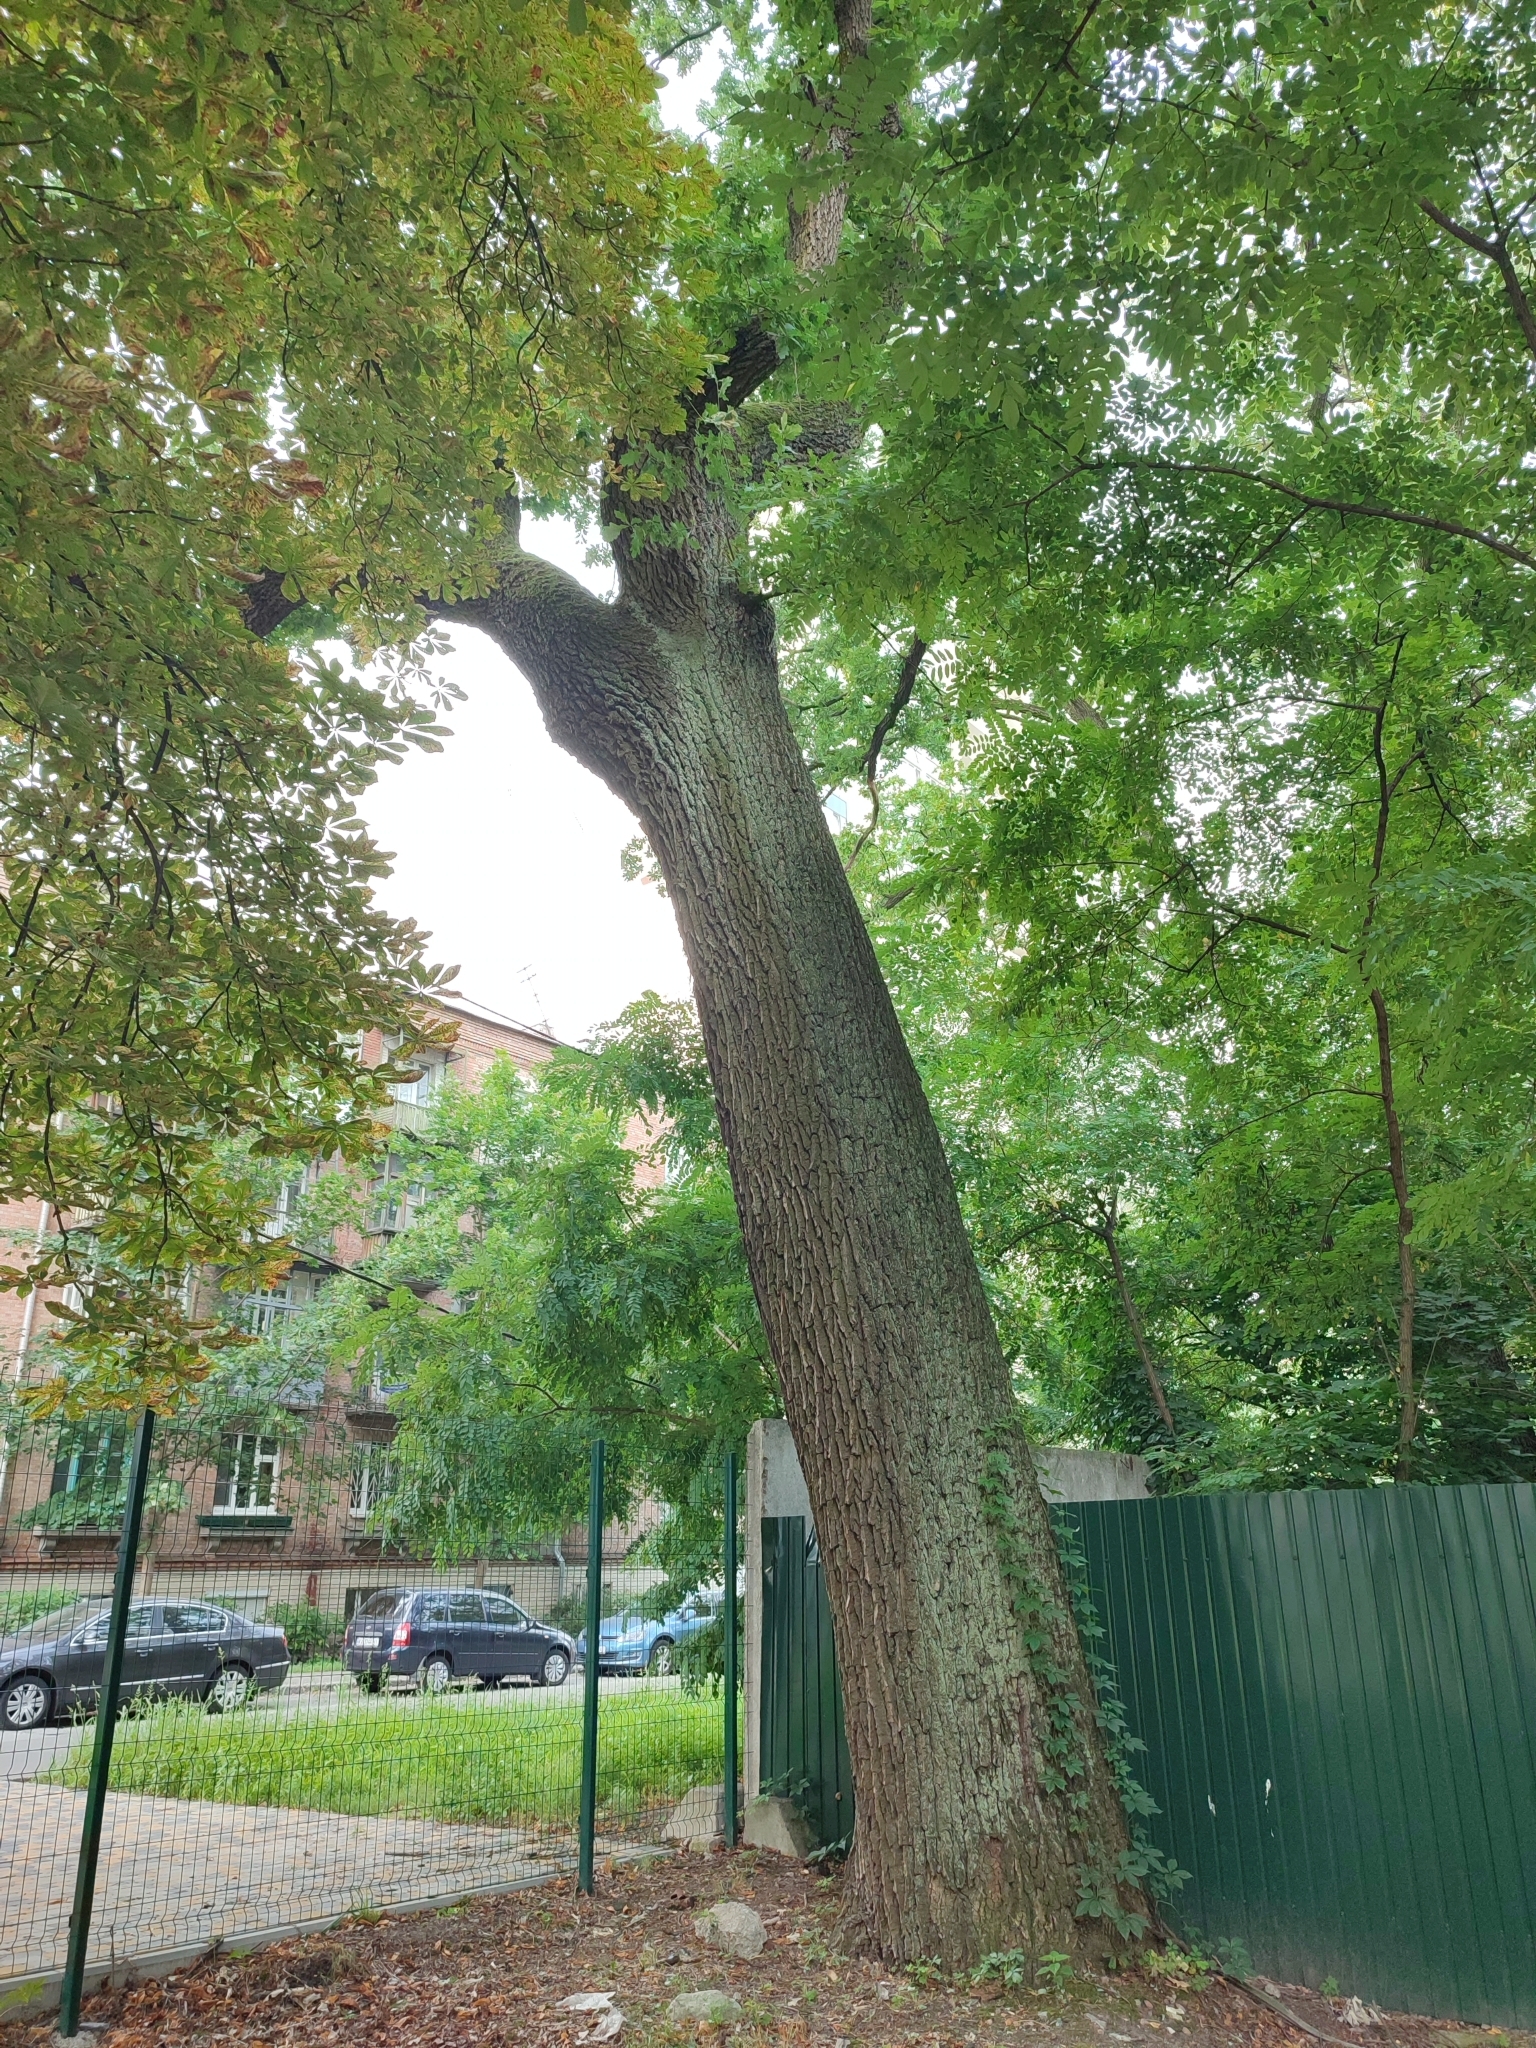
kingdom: Plantae
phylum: Tracheophyta
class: Magnoliopsida
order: Fagales
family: Fagaceae
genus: Quercus
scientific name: Quercus robur
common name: Pedunculate oak
